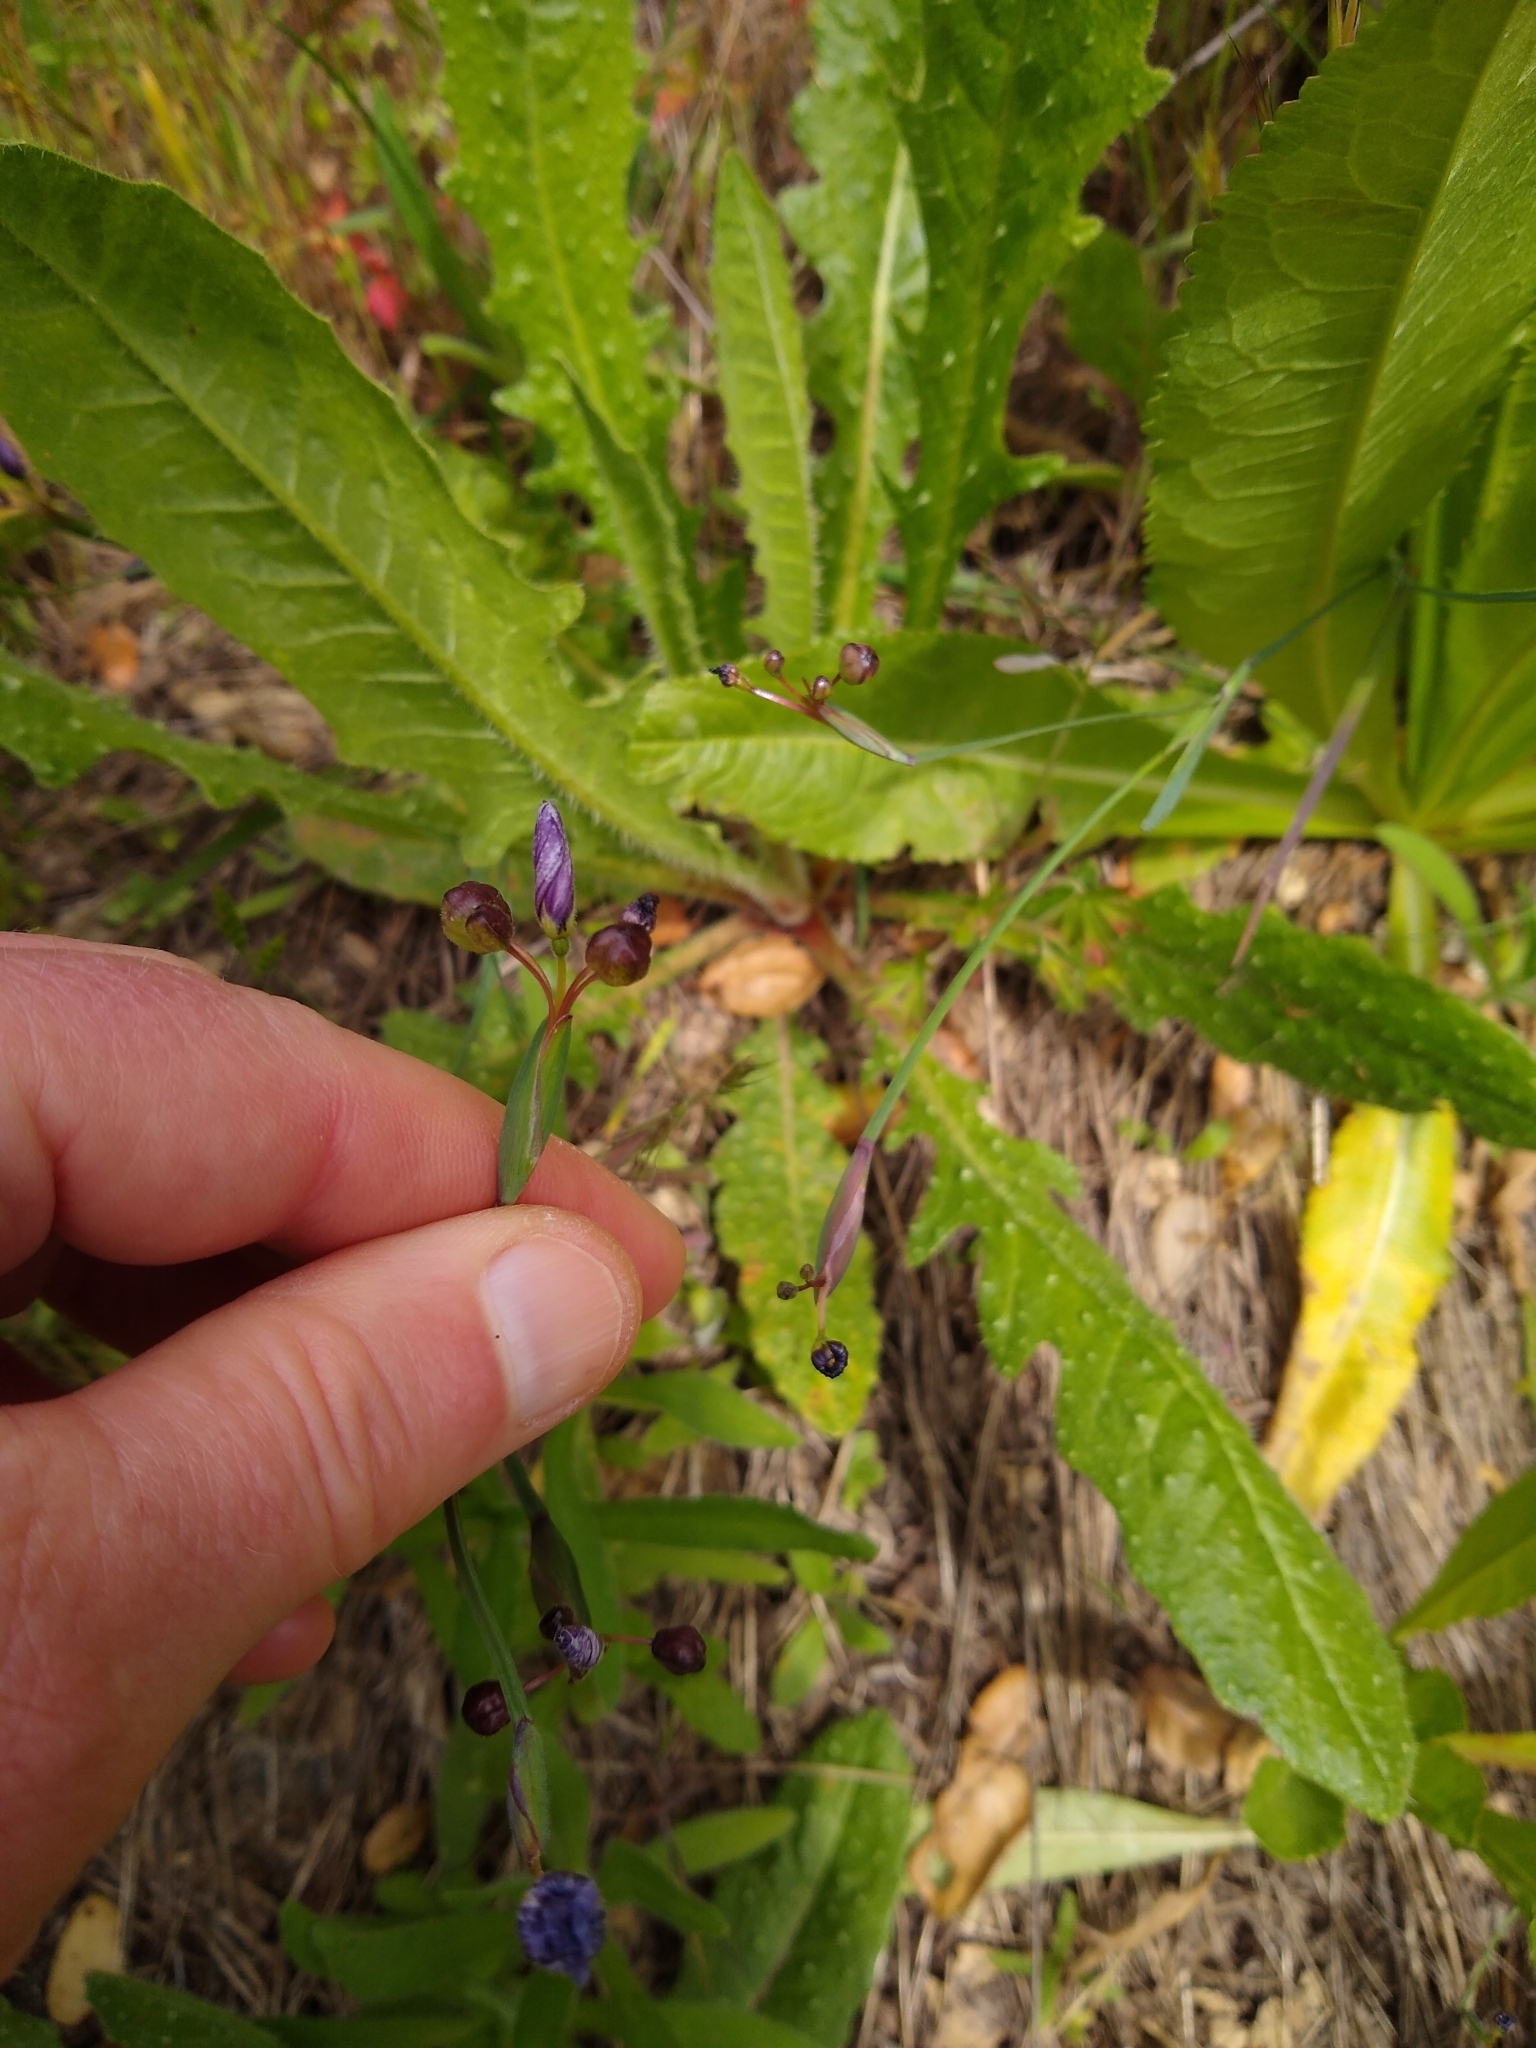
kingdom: Plantae
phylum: Tracheophyta
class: Liliopsida
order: Asparagales
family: Iridaceae
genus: Sisyrinchium
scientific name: Sisyrinchium bellum
